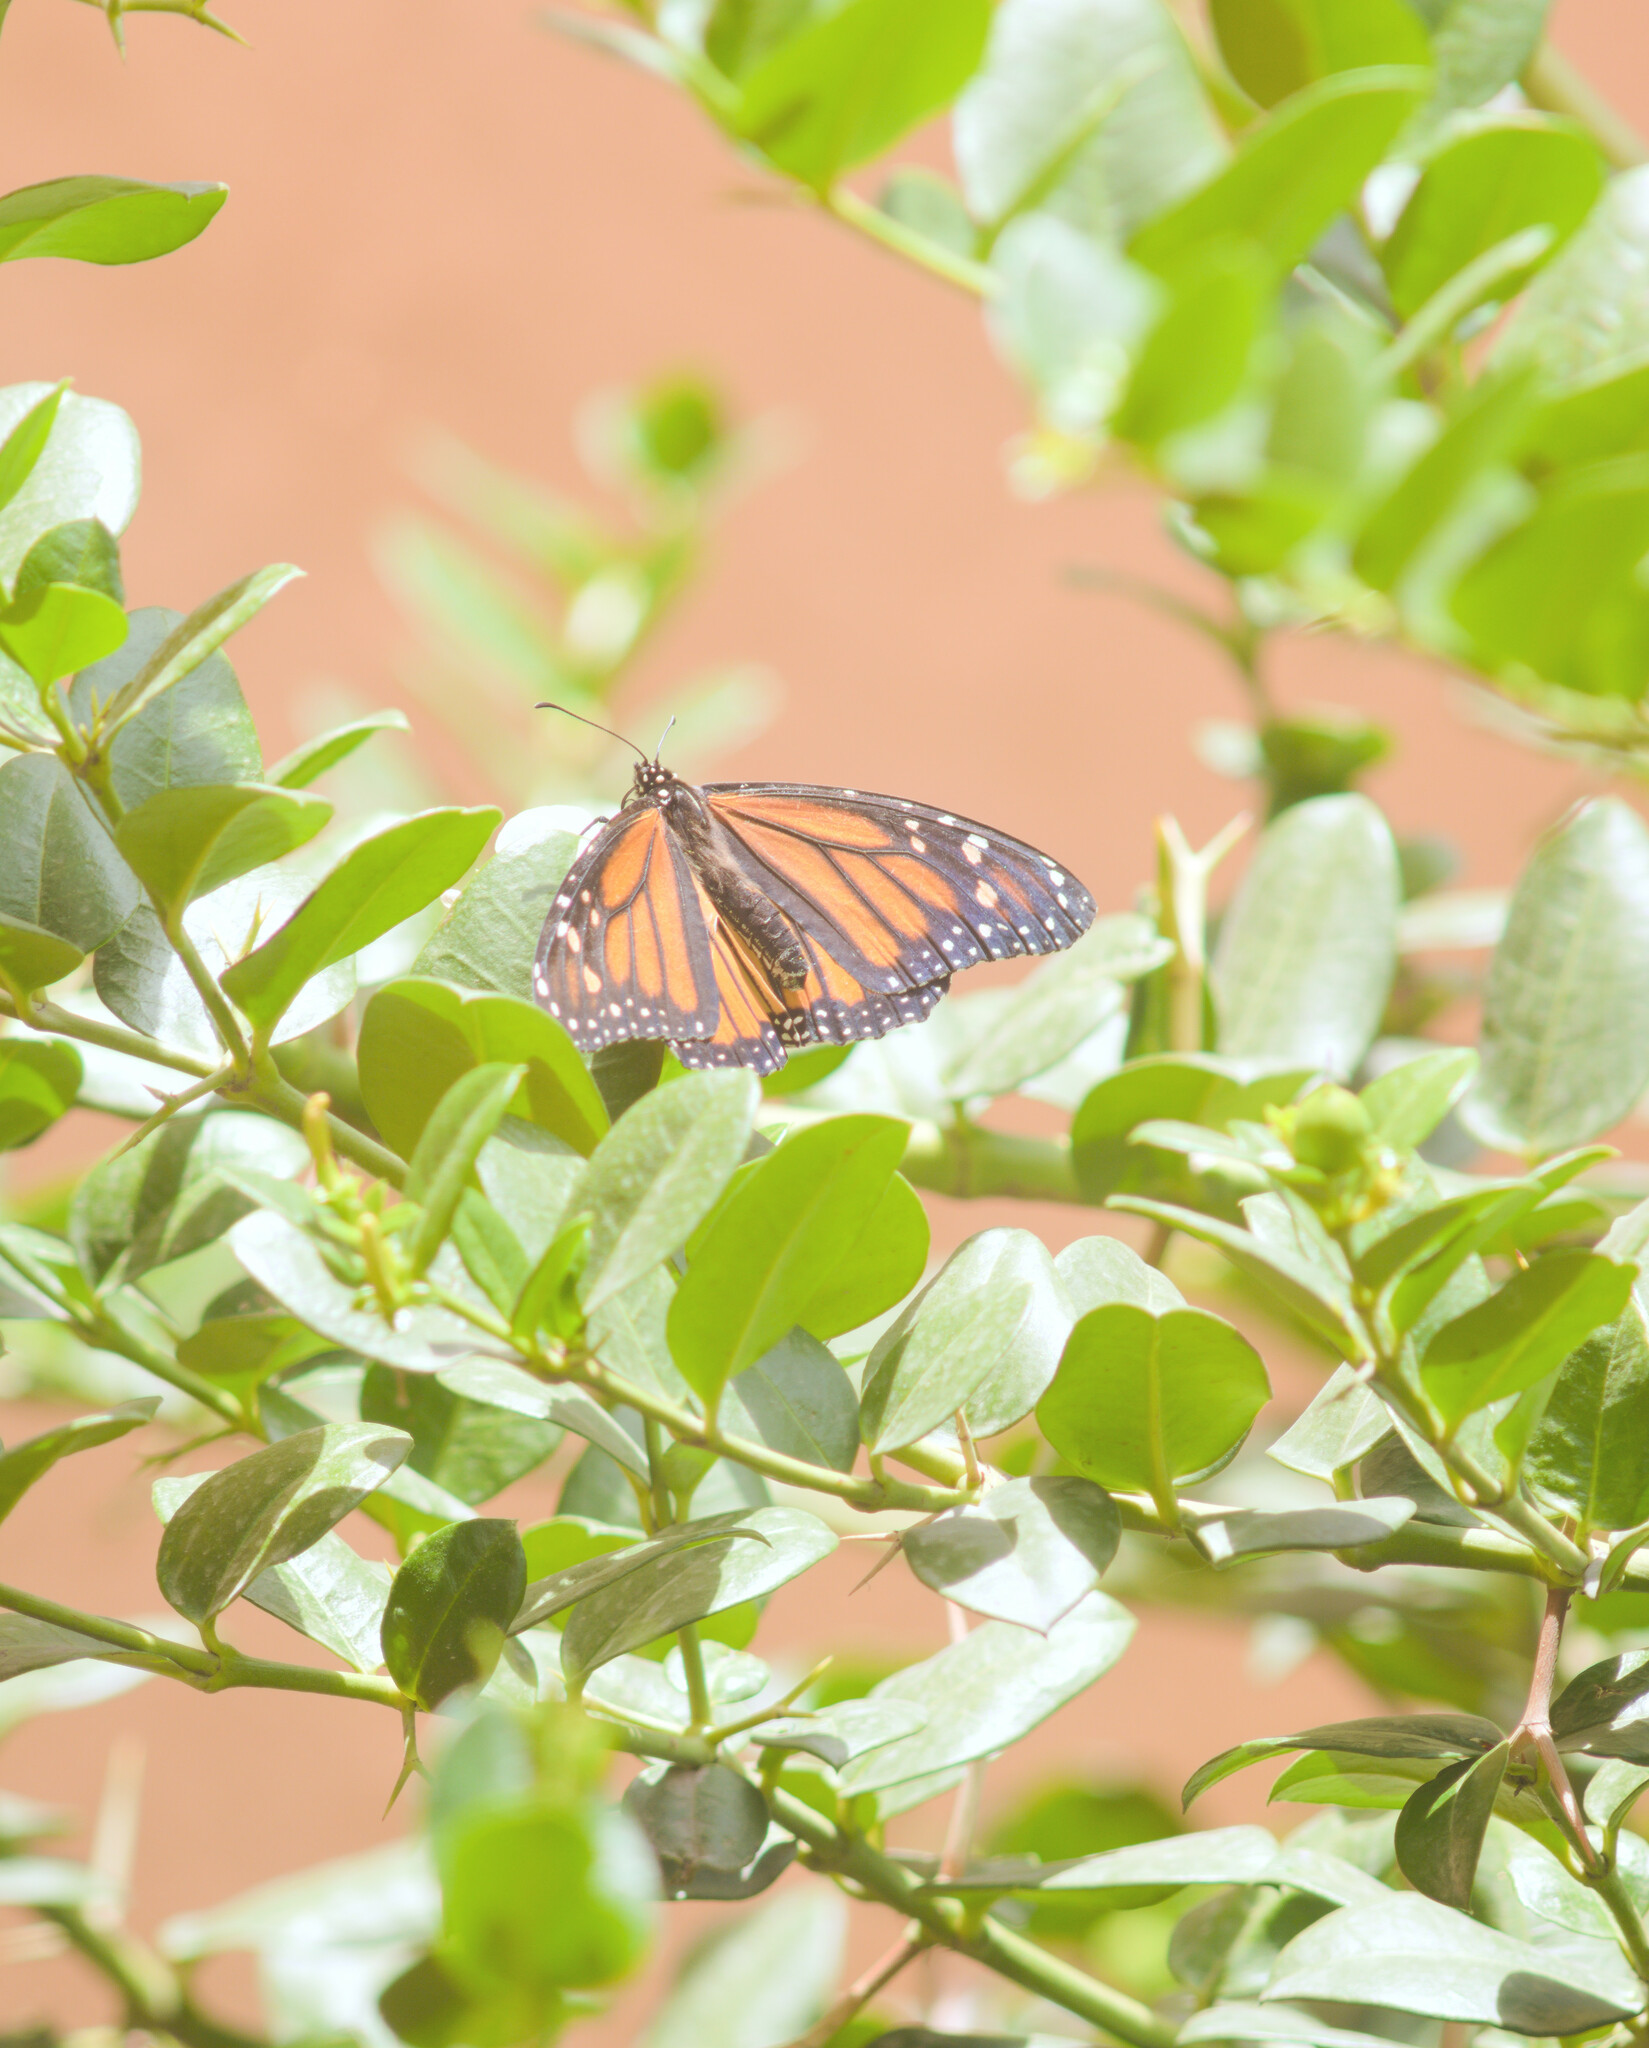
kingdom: Animalia
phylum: Arthropoda
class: Insecta
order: Lepidoptera
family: Nymphalidae
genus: Danaus
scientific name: Danaus plexippus
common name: Monarch
